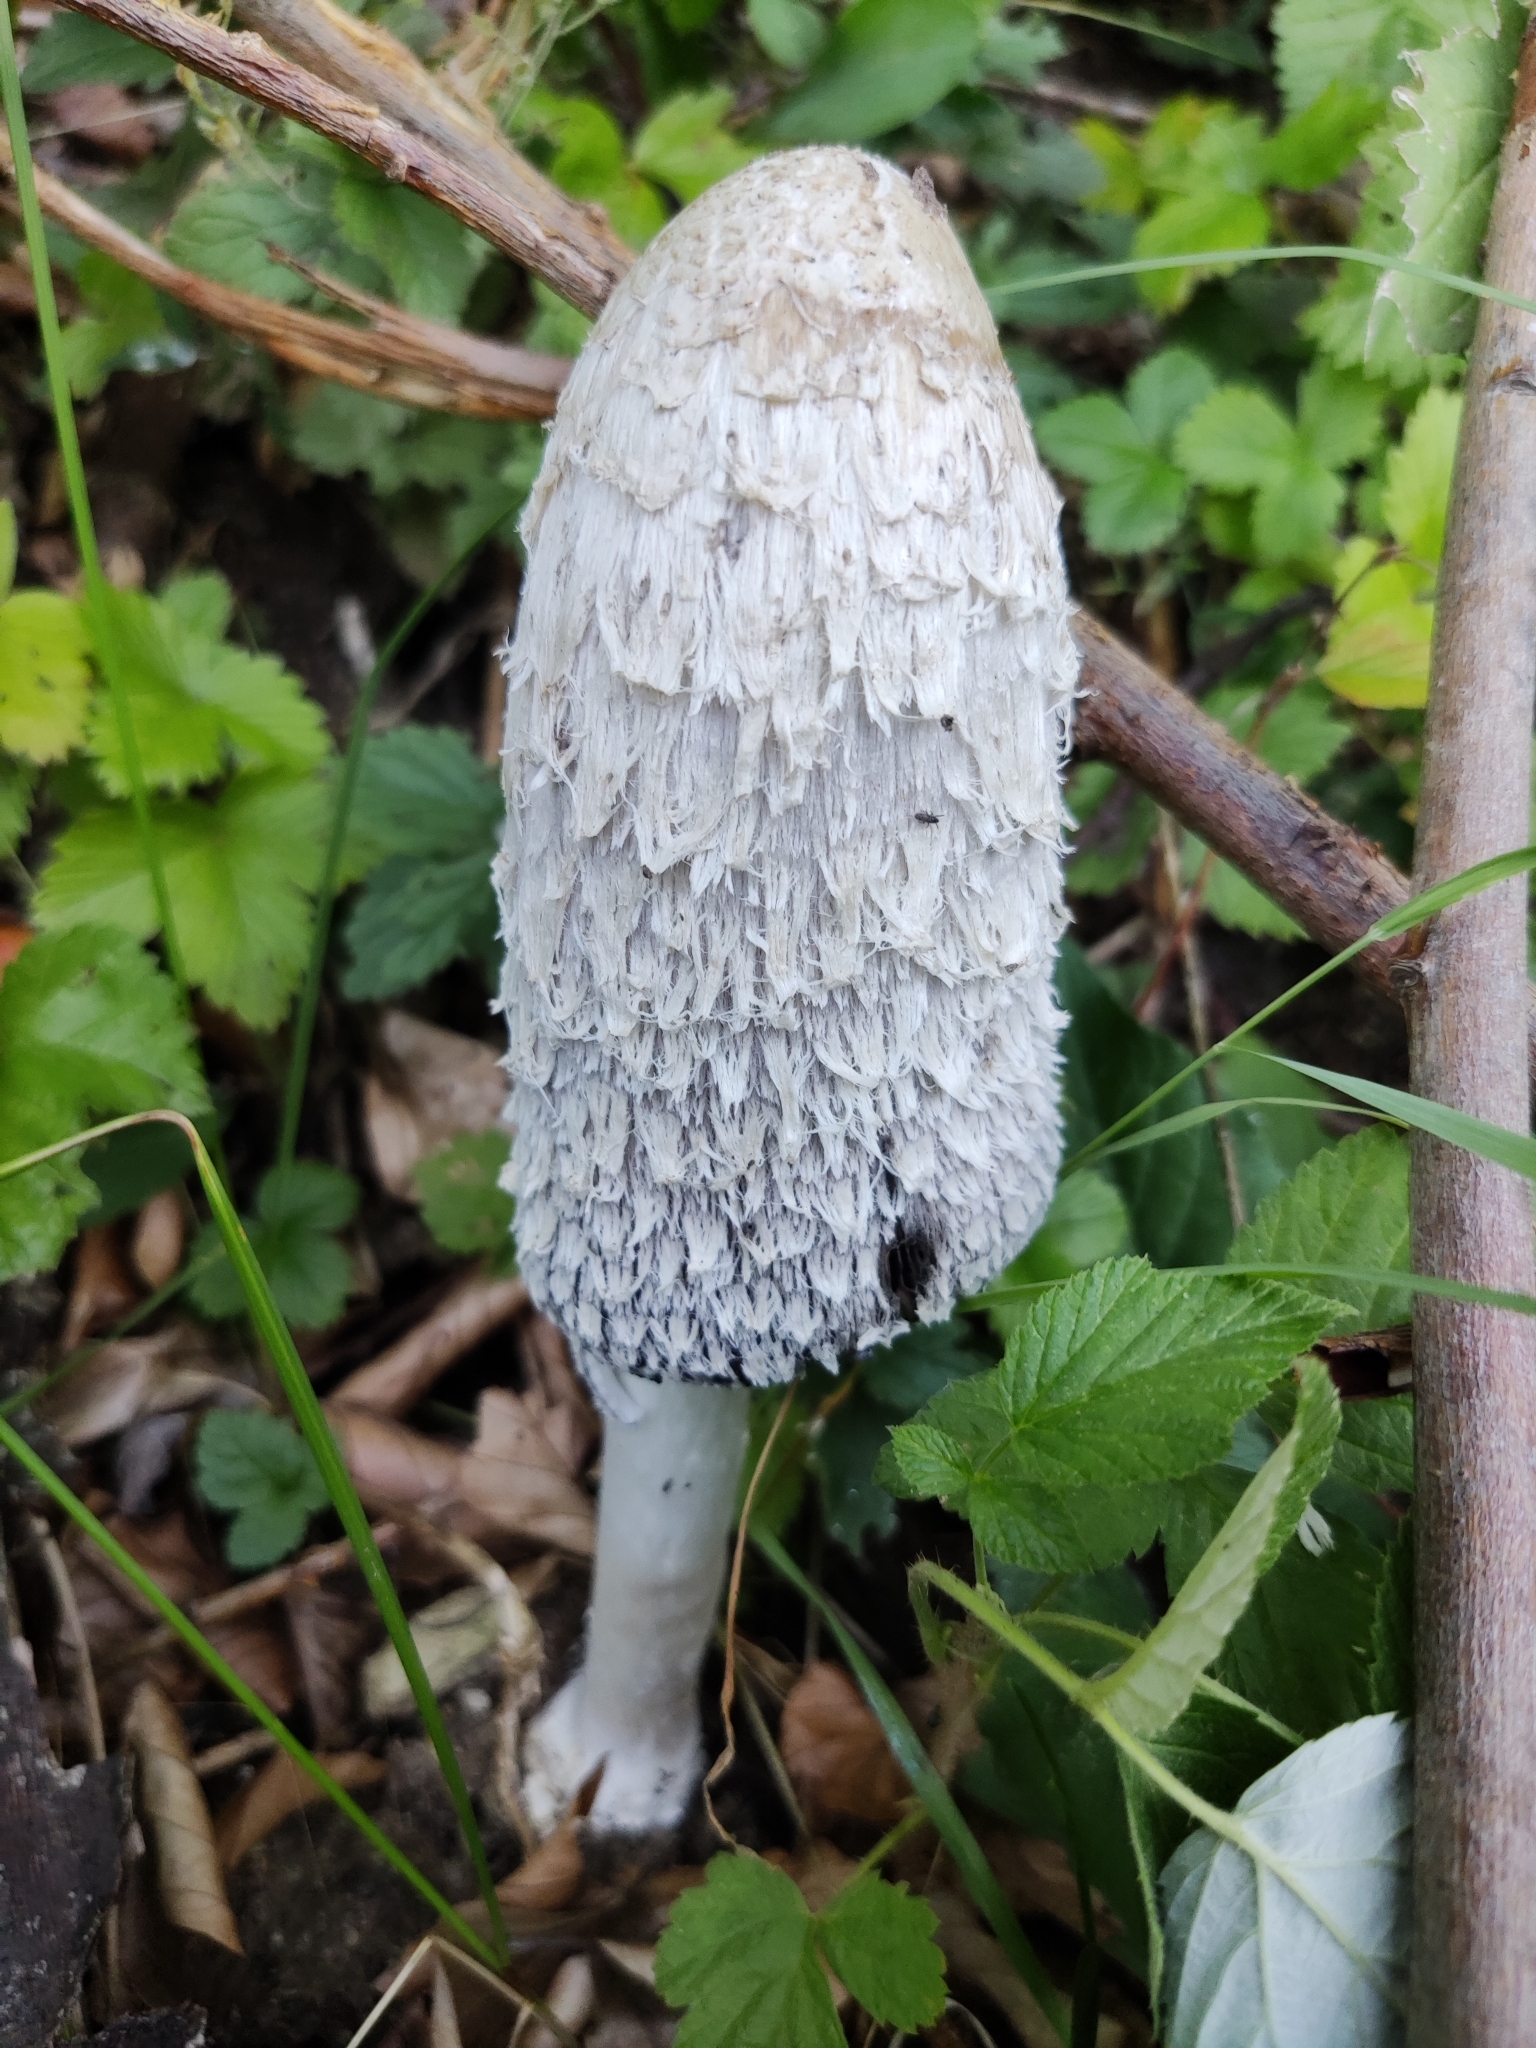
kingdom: Fungi
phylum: Basidiomycota
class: Agaricomycetes
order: Agaricales
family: Agaricaceae
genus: Coprinus
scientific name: Coprinus comatus
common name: Lawyer's wig
